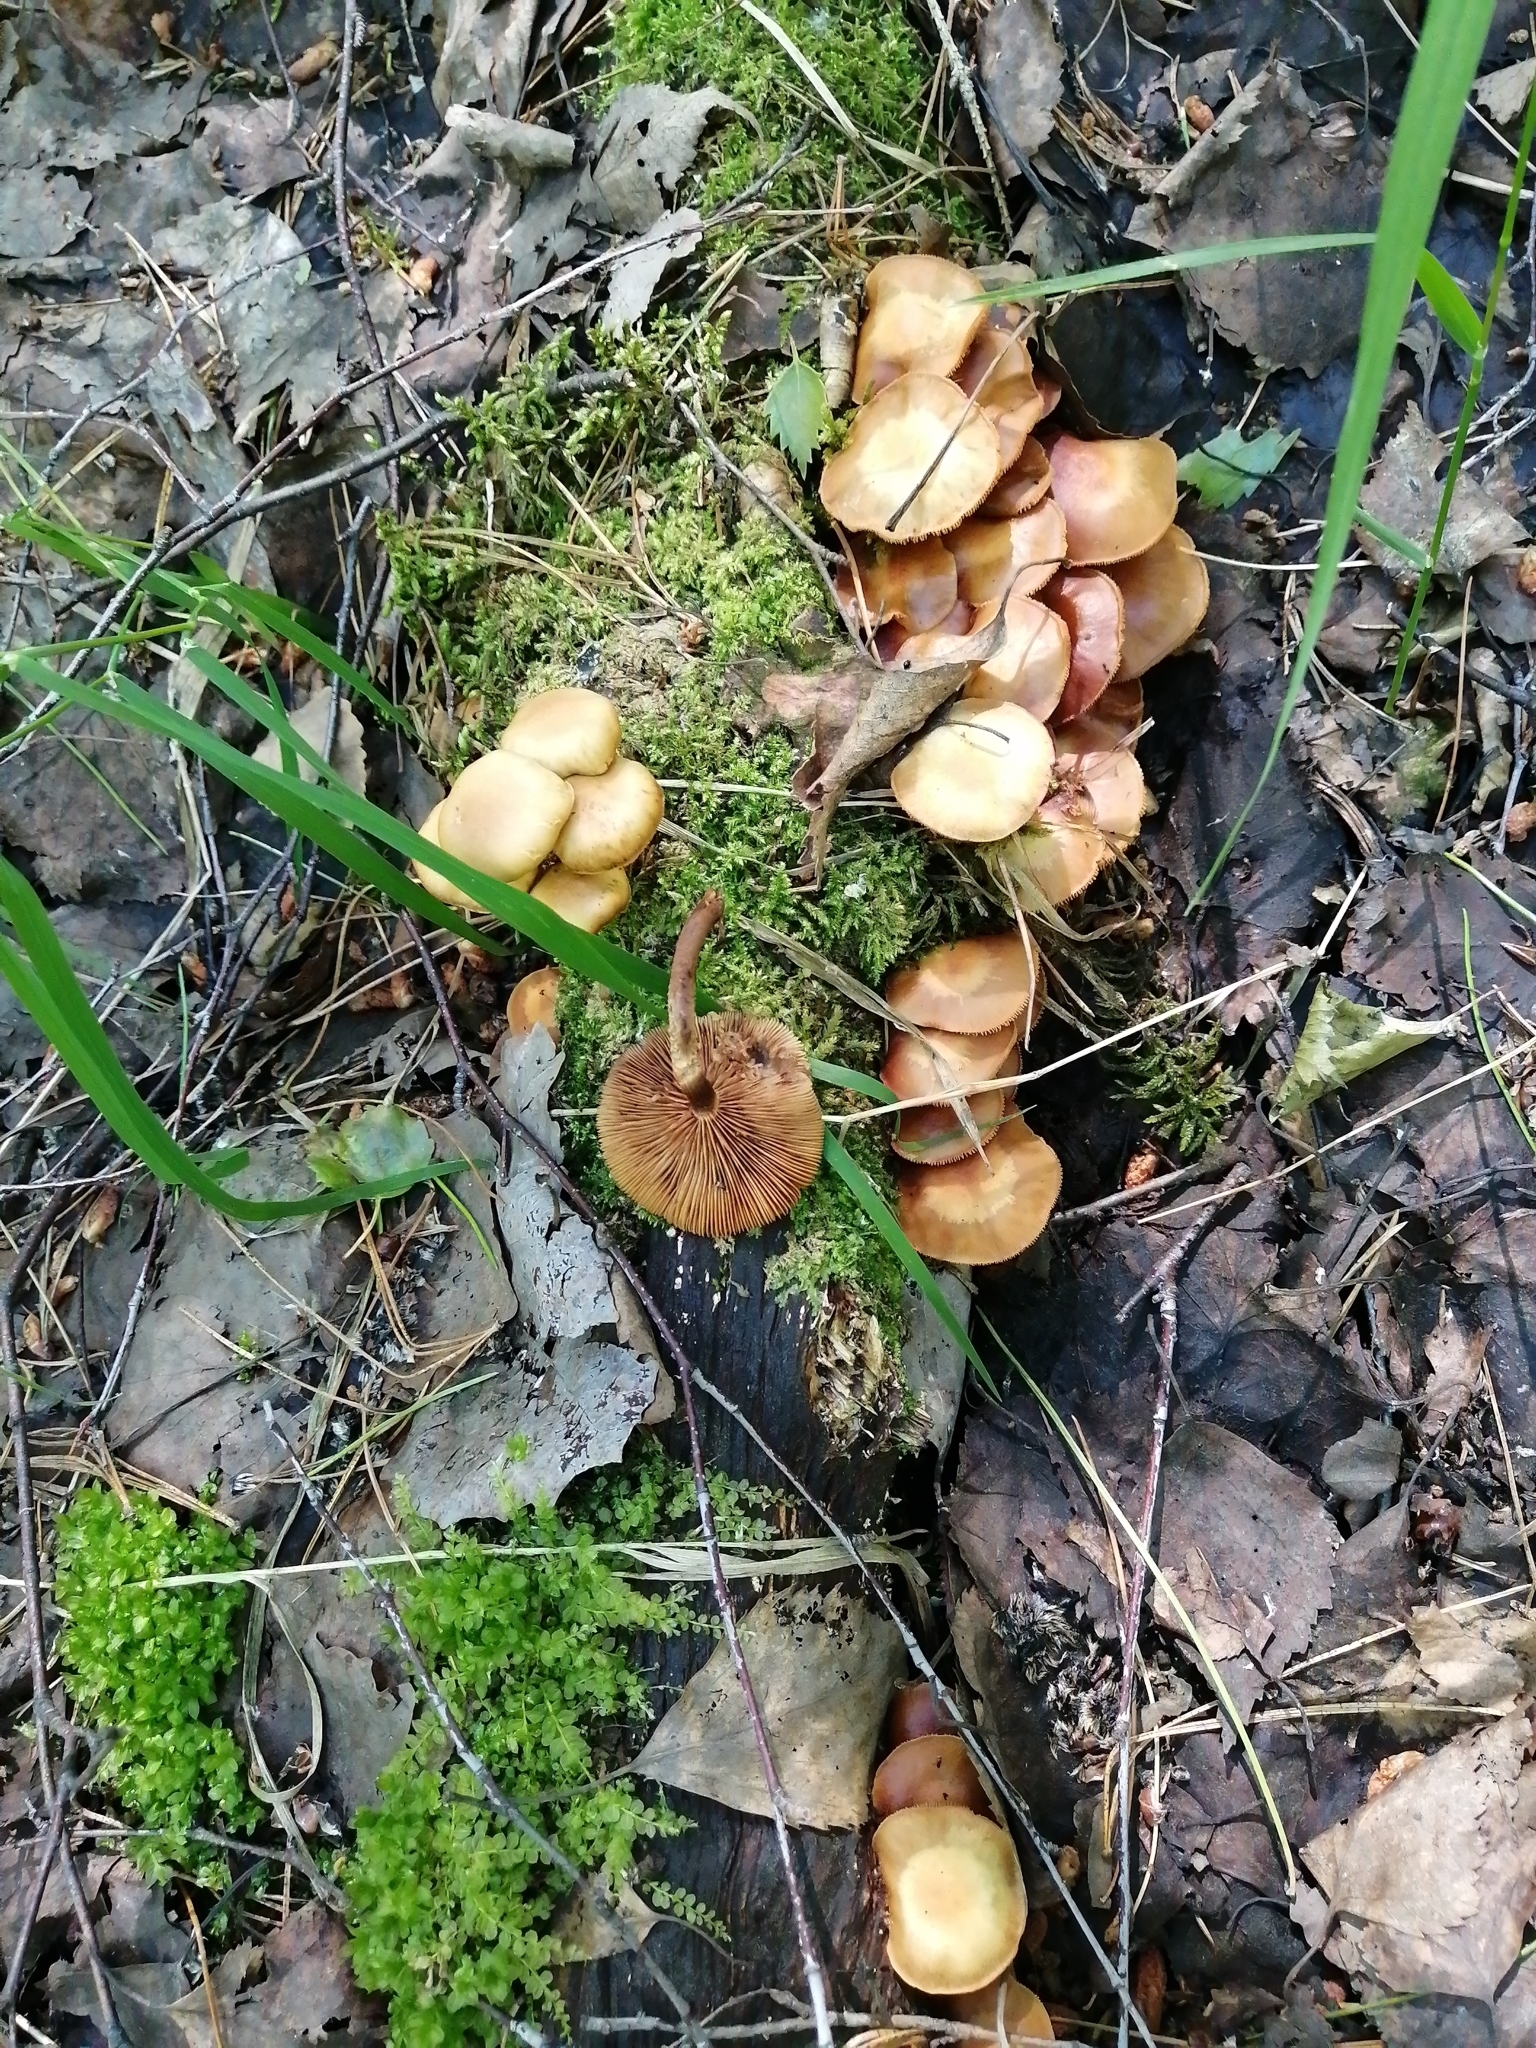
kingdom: Fungi
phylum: Basidiomycota
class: Agaricomycetes
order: Agaricales
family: Strophariaceae
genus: Kuehneromyces
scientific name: Kuehneromyces mutabilis
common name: Sheathed woodtuft
